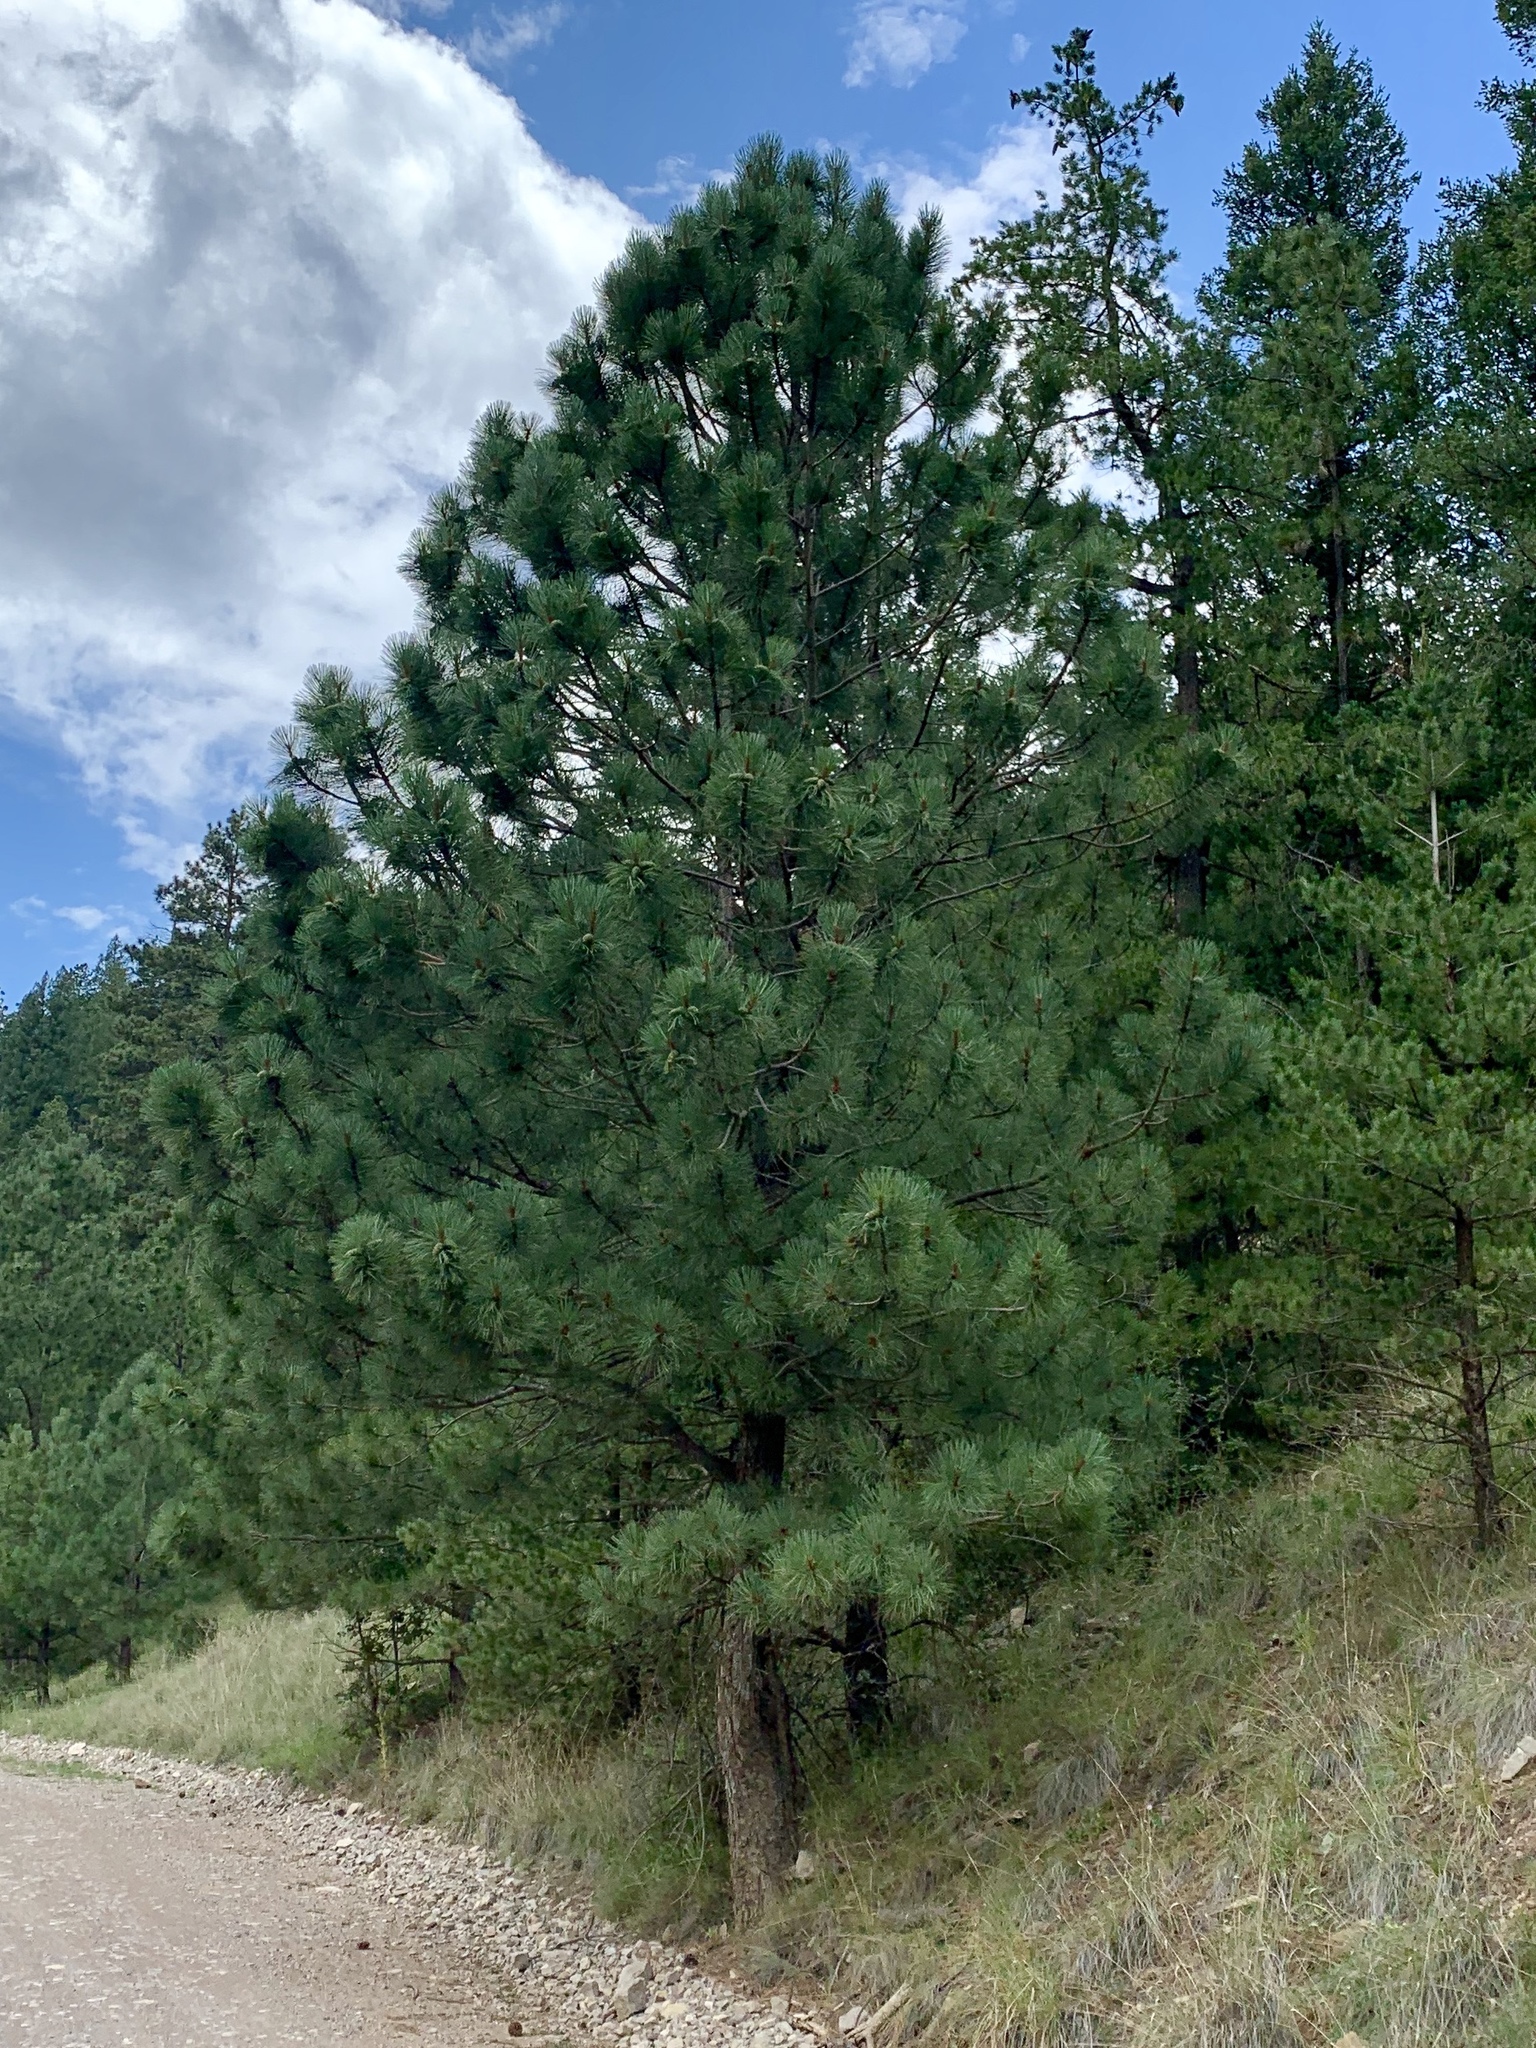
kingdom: Plantae
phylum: Tracheophyta
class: Pinopsida
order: Pinales
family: Pinaceae
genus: Pinus
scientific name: Pinus ponderosa
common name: Western yellow-pine
